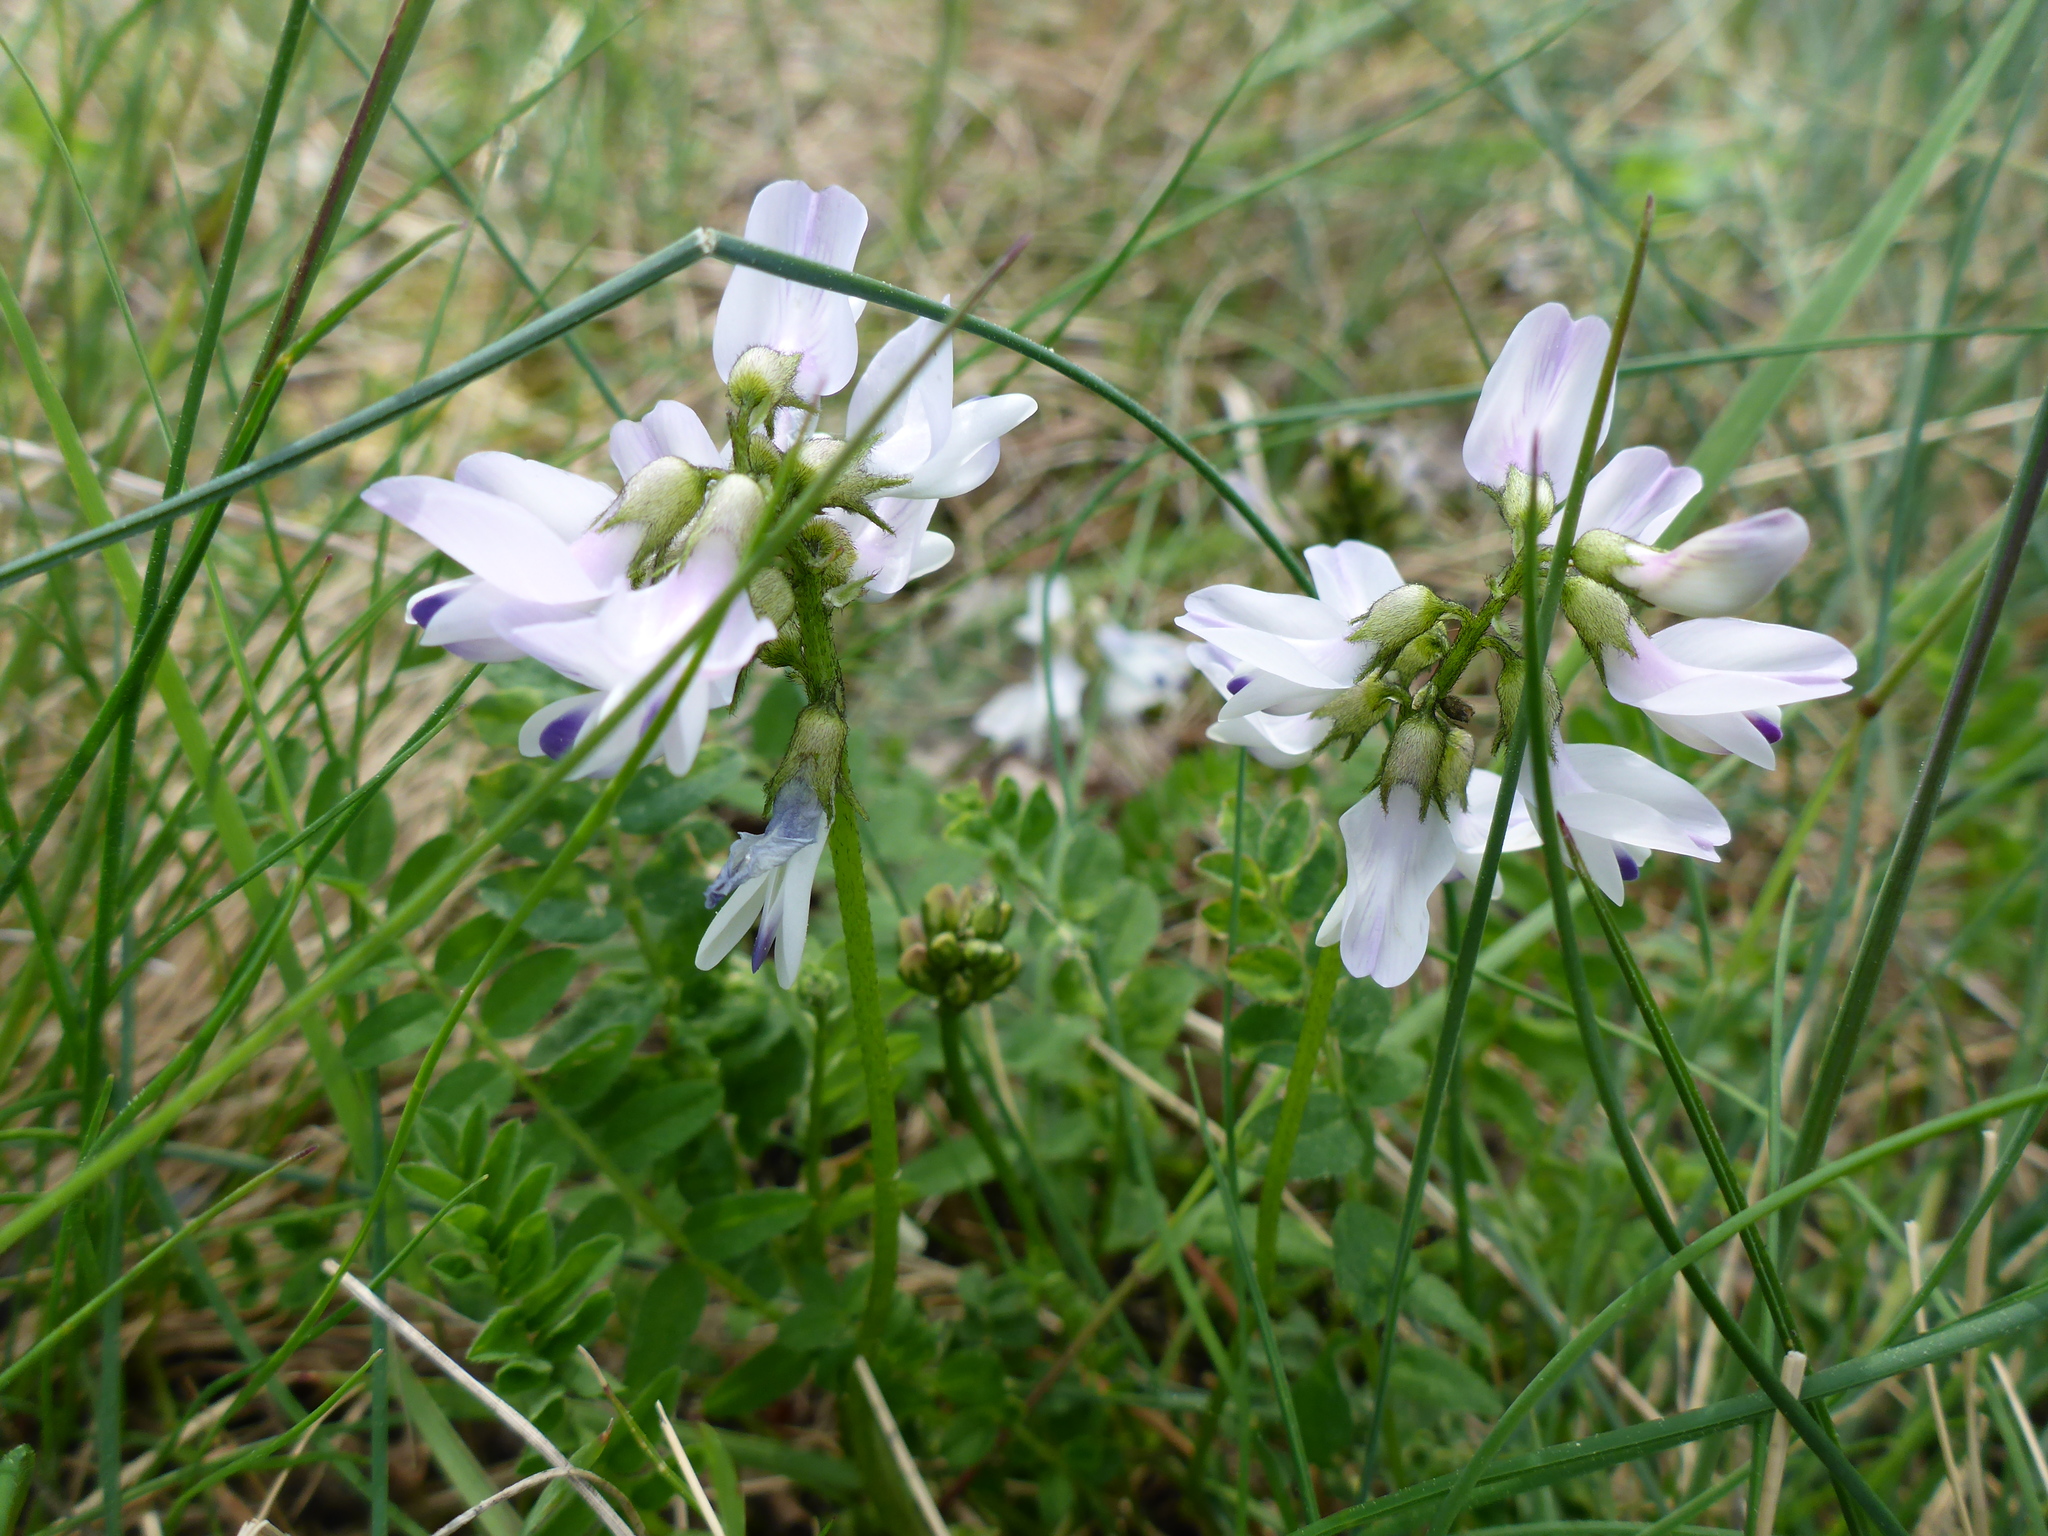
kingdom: Plantae
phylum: Tracheophyta
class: Magnoliopsida
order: Fabales
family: Fabaceae
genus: Astragalus
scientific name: Astragalus alpinus
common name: Alpine milk-vetch
